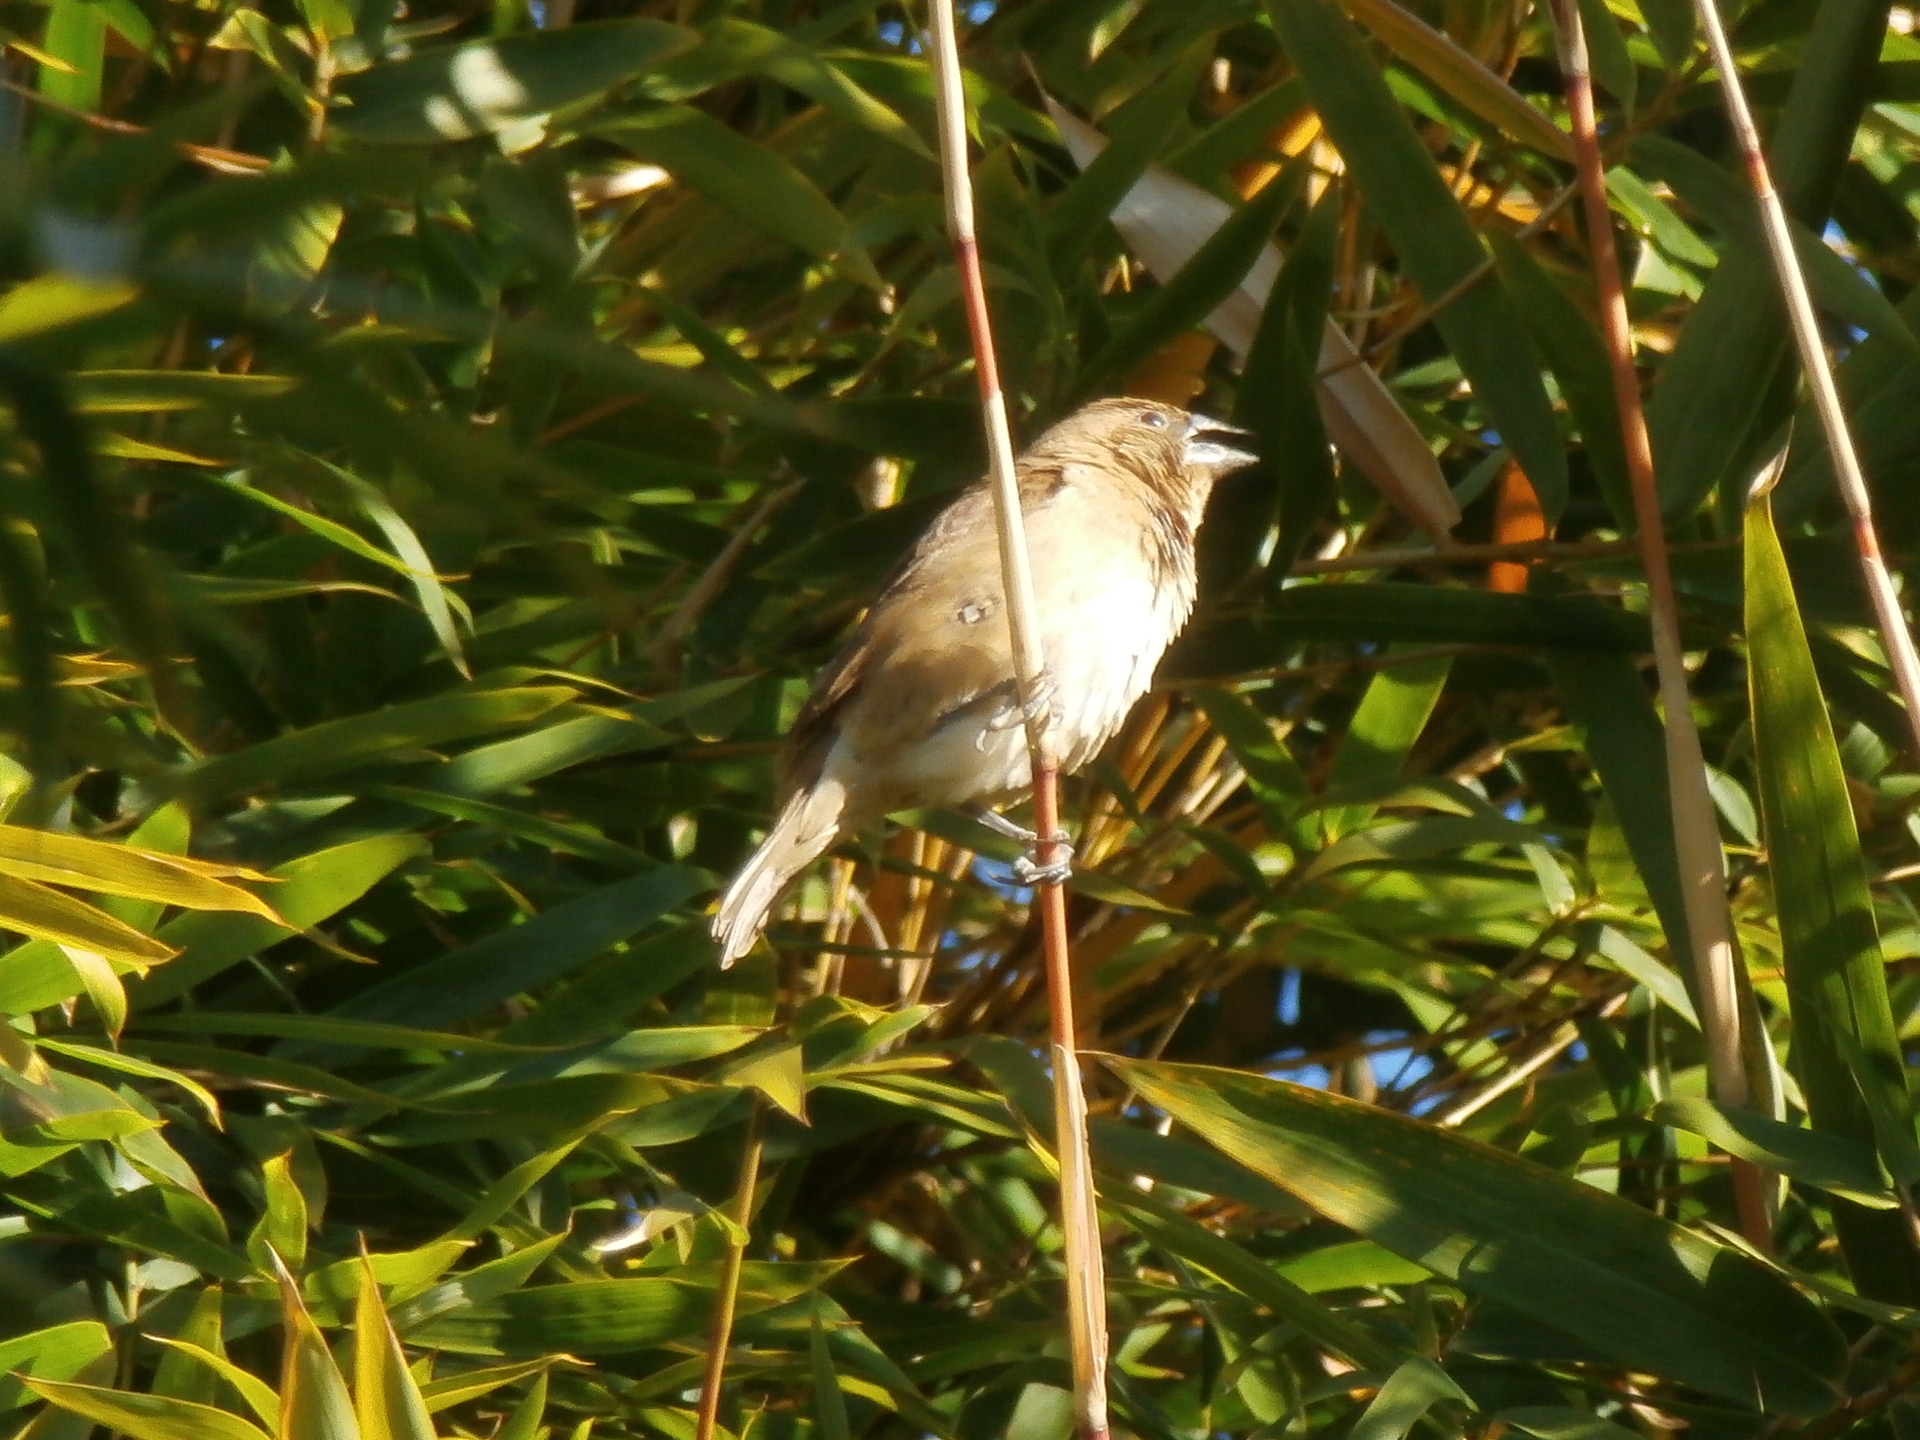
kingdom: Animalia
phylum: Chordata
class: Aves
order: Passeriformes
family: Estrildidae
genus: Lonchura
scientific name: Lonchura punctulata
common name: Scaly-breasted munia
